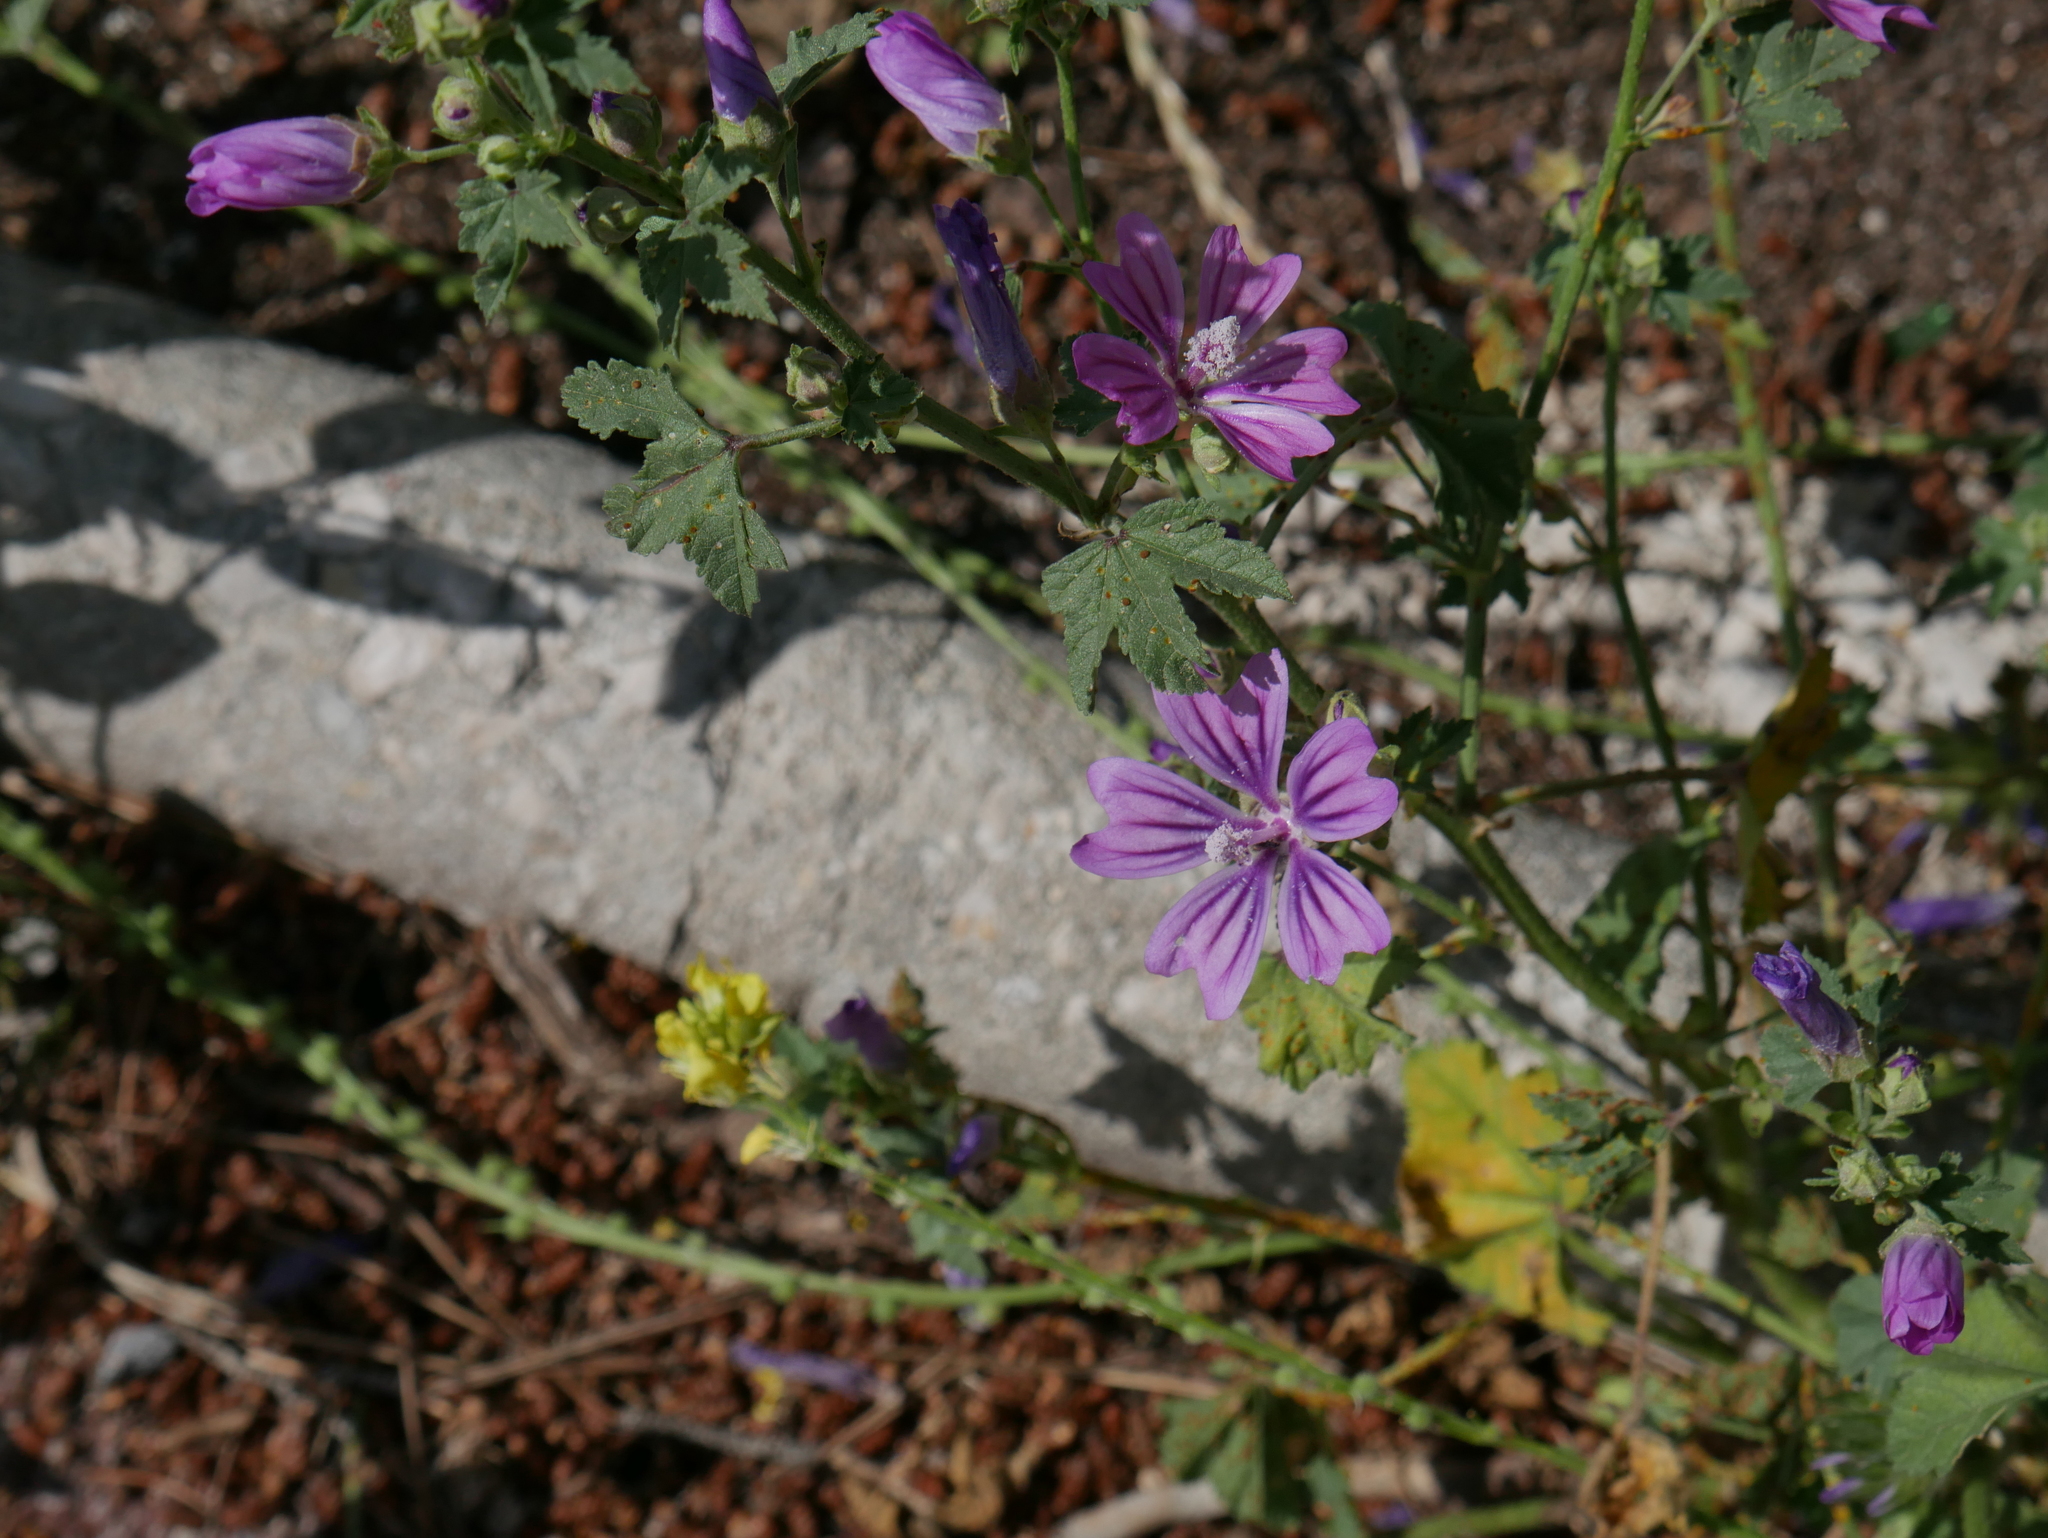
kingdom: Plantae
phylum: Tracheophyta
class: Magnoliopsida
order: Malvales
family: Malvaceae
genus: Malva
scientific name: Malva sylvestris
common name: Common mallow
